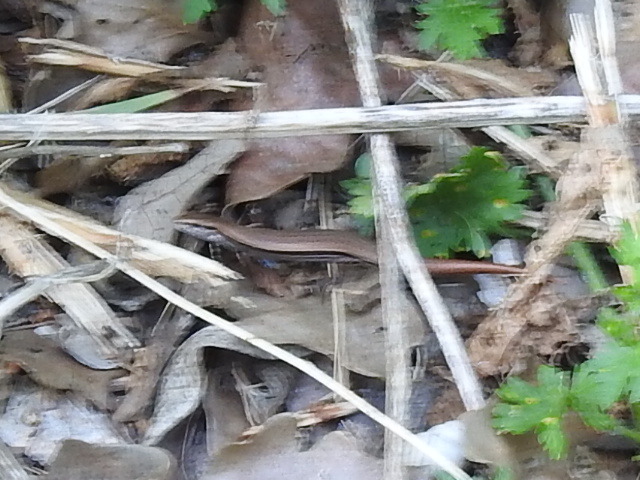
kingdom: Animalia
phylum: Chordata
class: Squamata
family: Scincidae
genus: Scincella
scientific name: Scincella lateralis
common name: Ground skink
